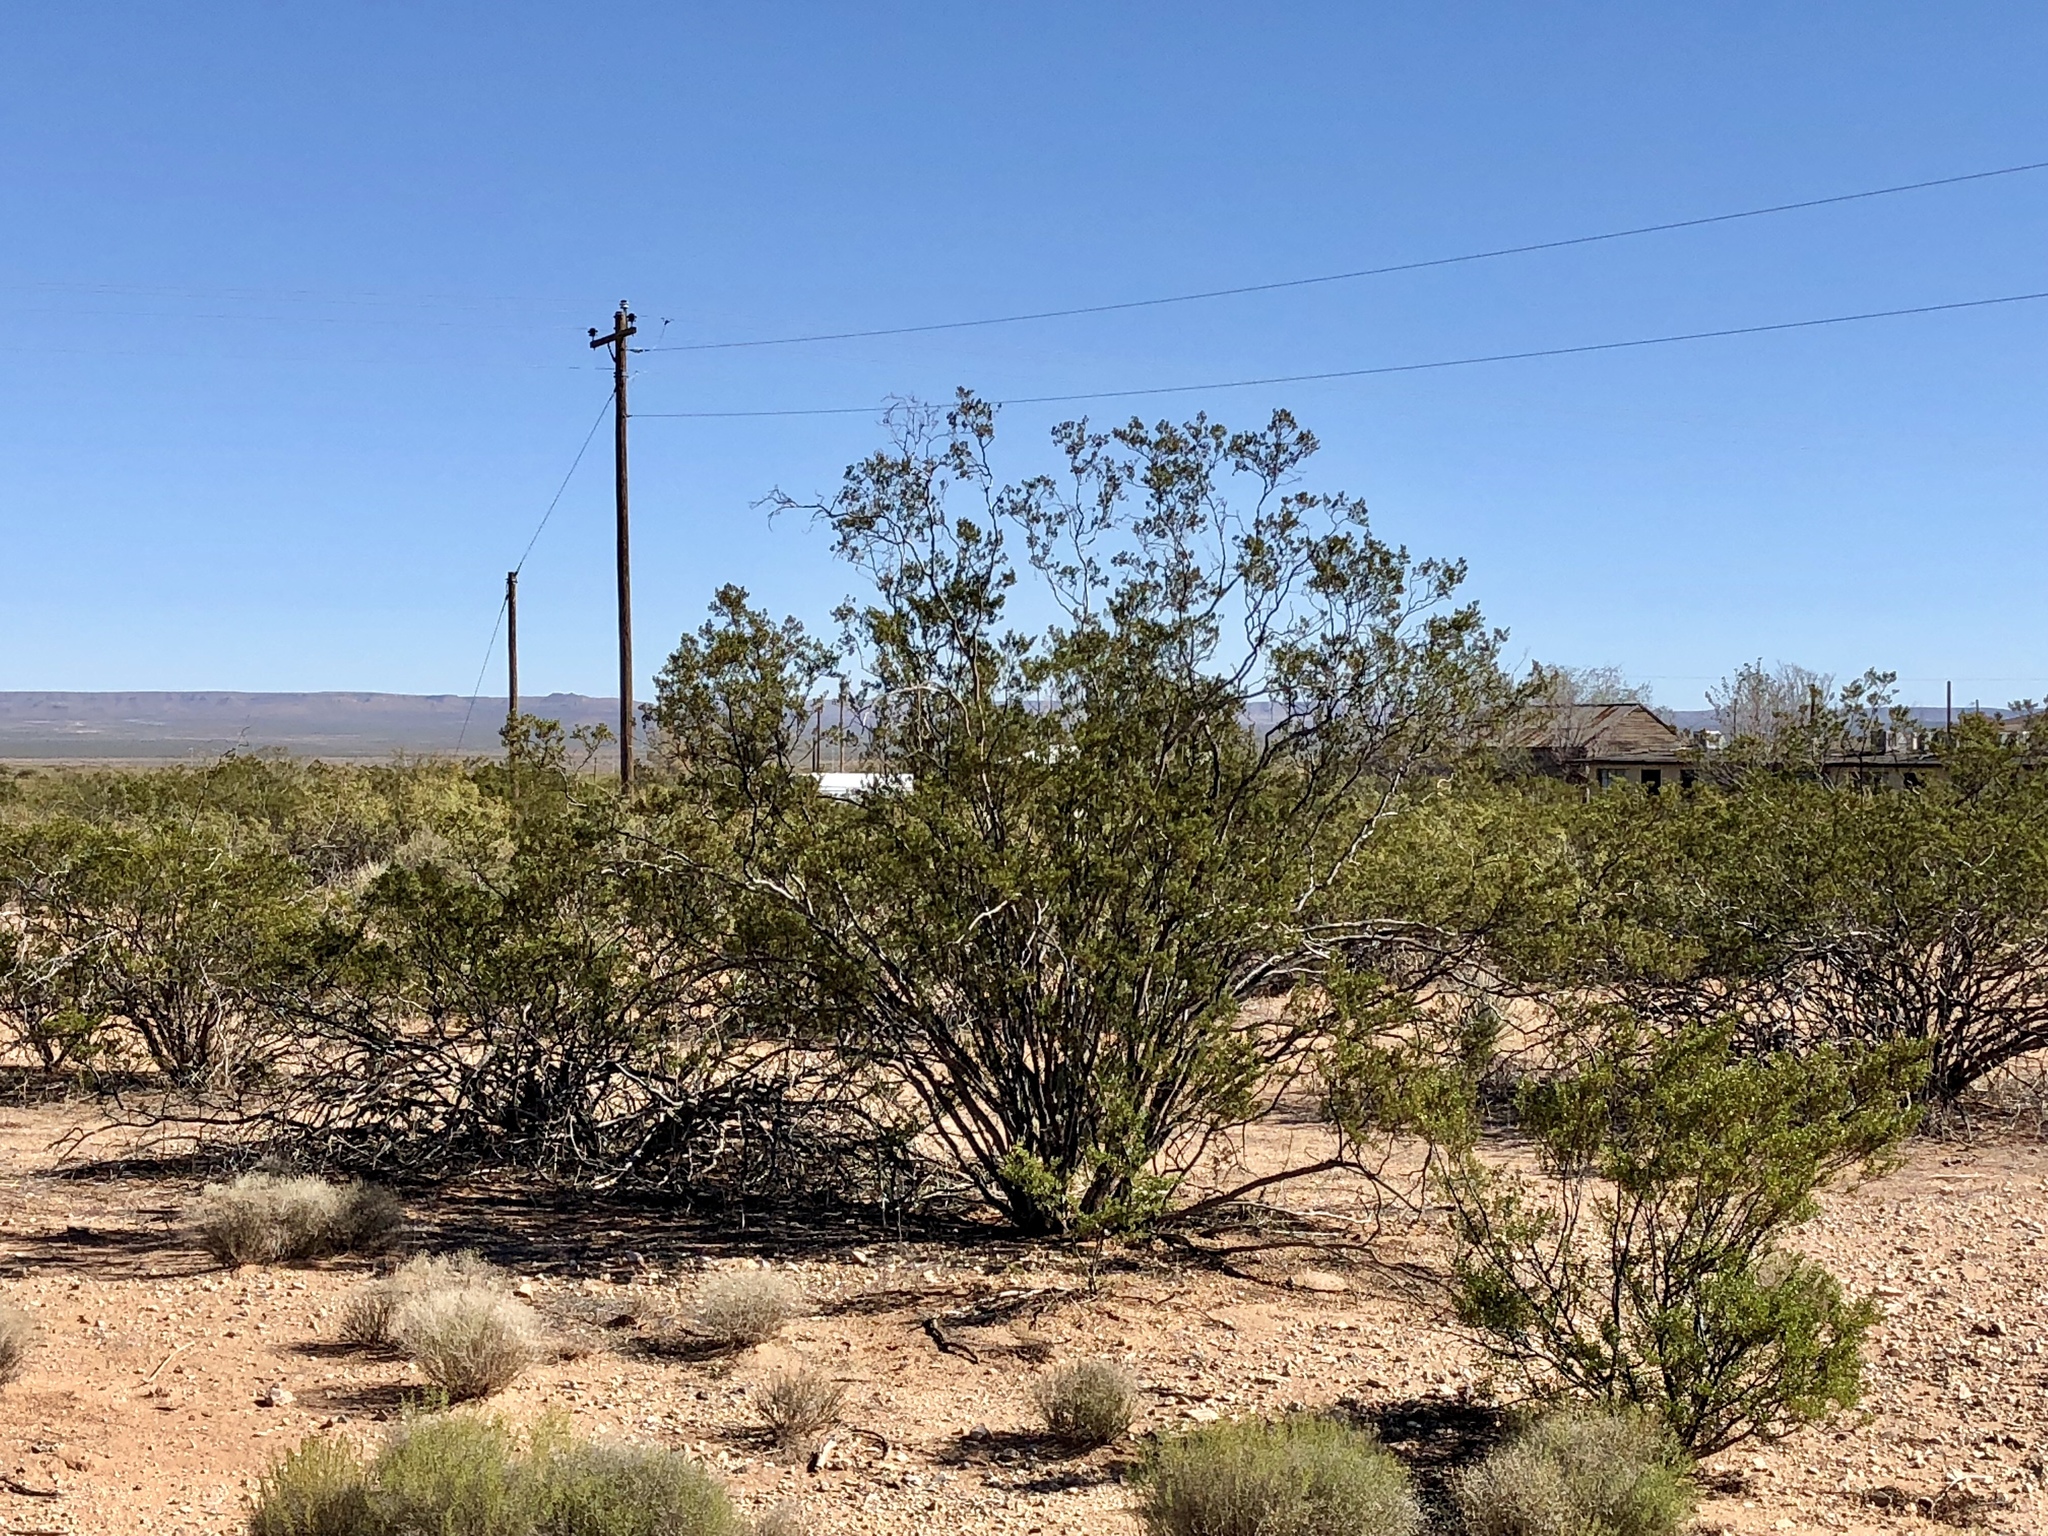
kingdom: Plantae
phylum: Tracheophyta
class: Magnoliopsida
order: Zygophyllales
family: Zygophyllaceae
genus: Larrea
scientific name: Larrea tridentata
